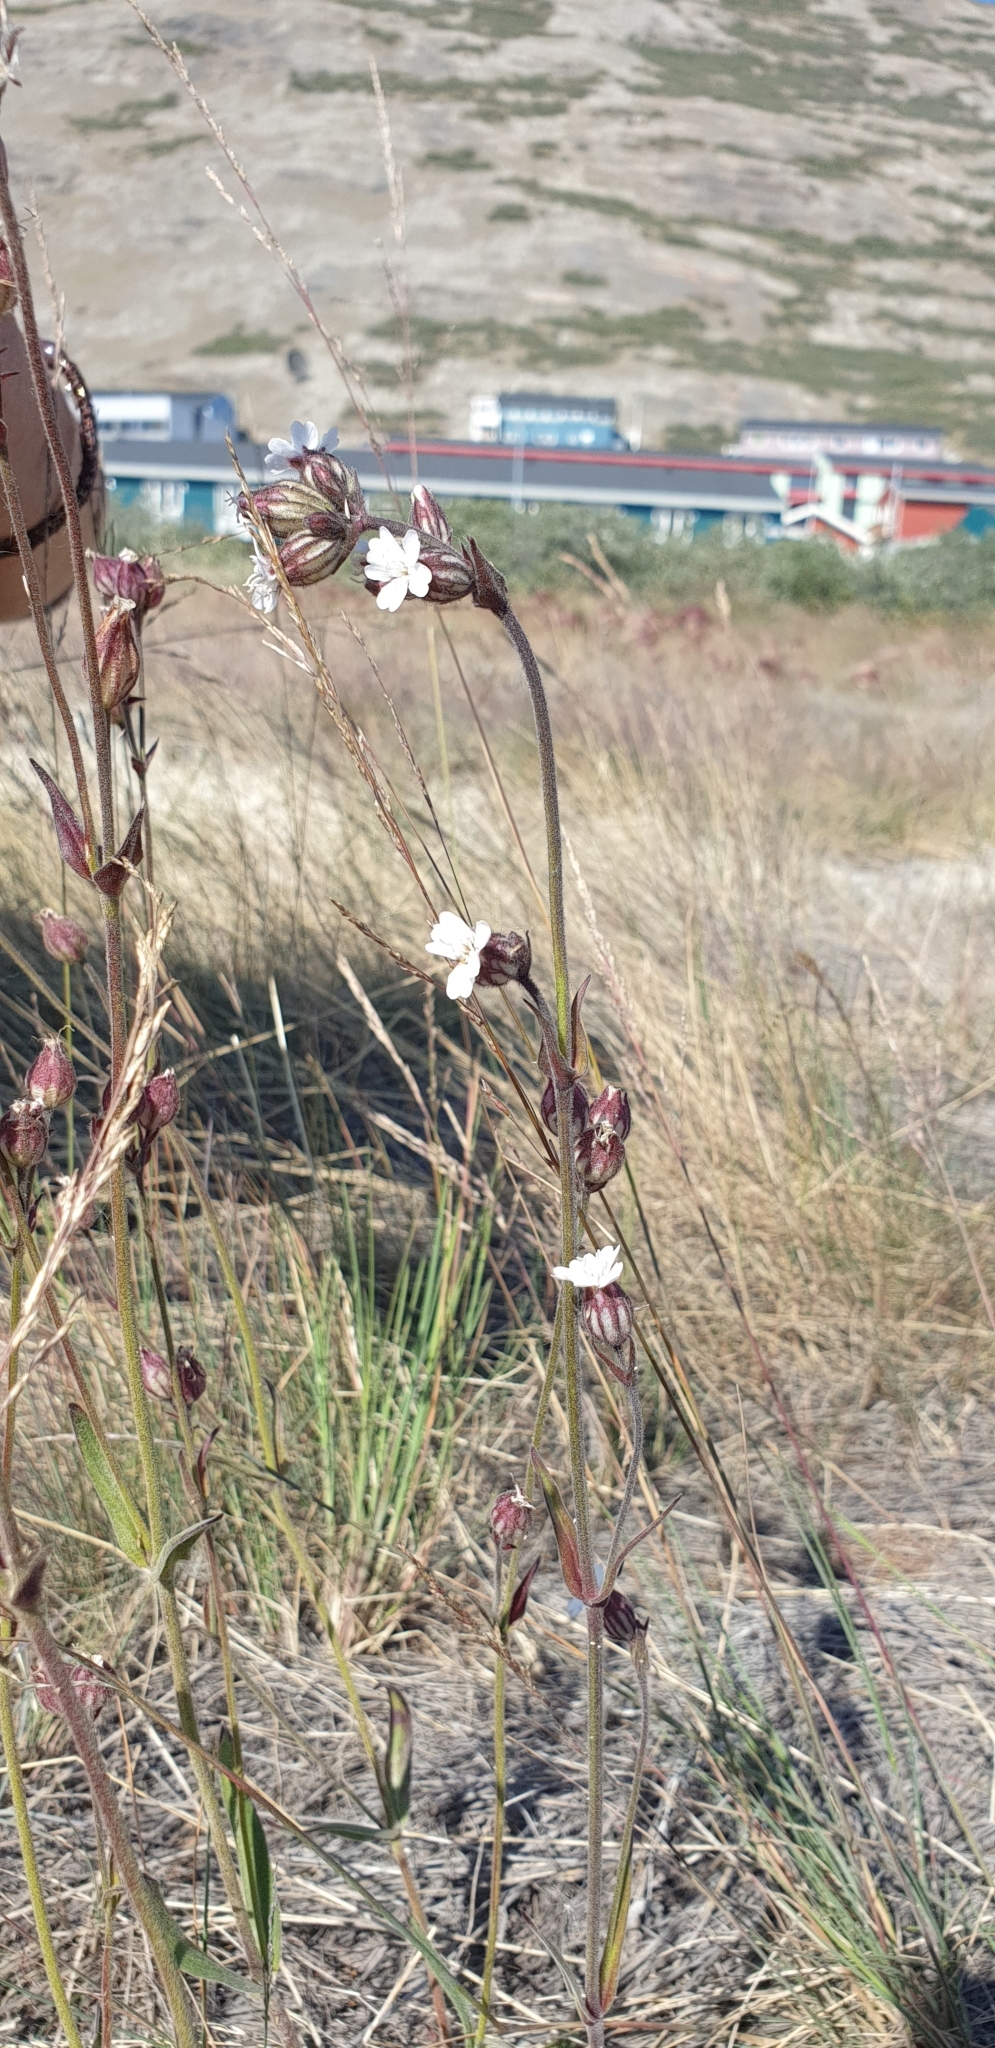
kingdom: Plantae
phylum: Tracheophyta
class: Magnoliopsida
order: Caryophyllales
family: Caryophyllaceae
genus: Silene
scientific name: Silene taimyrensis
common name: Taimyr campion
